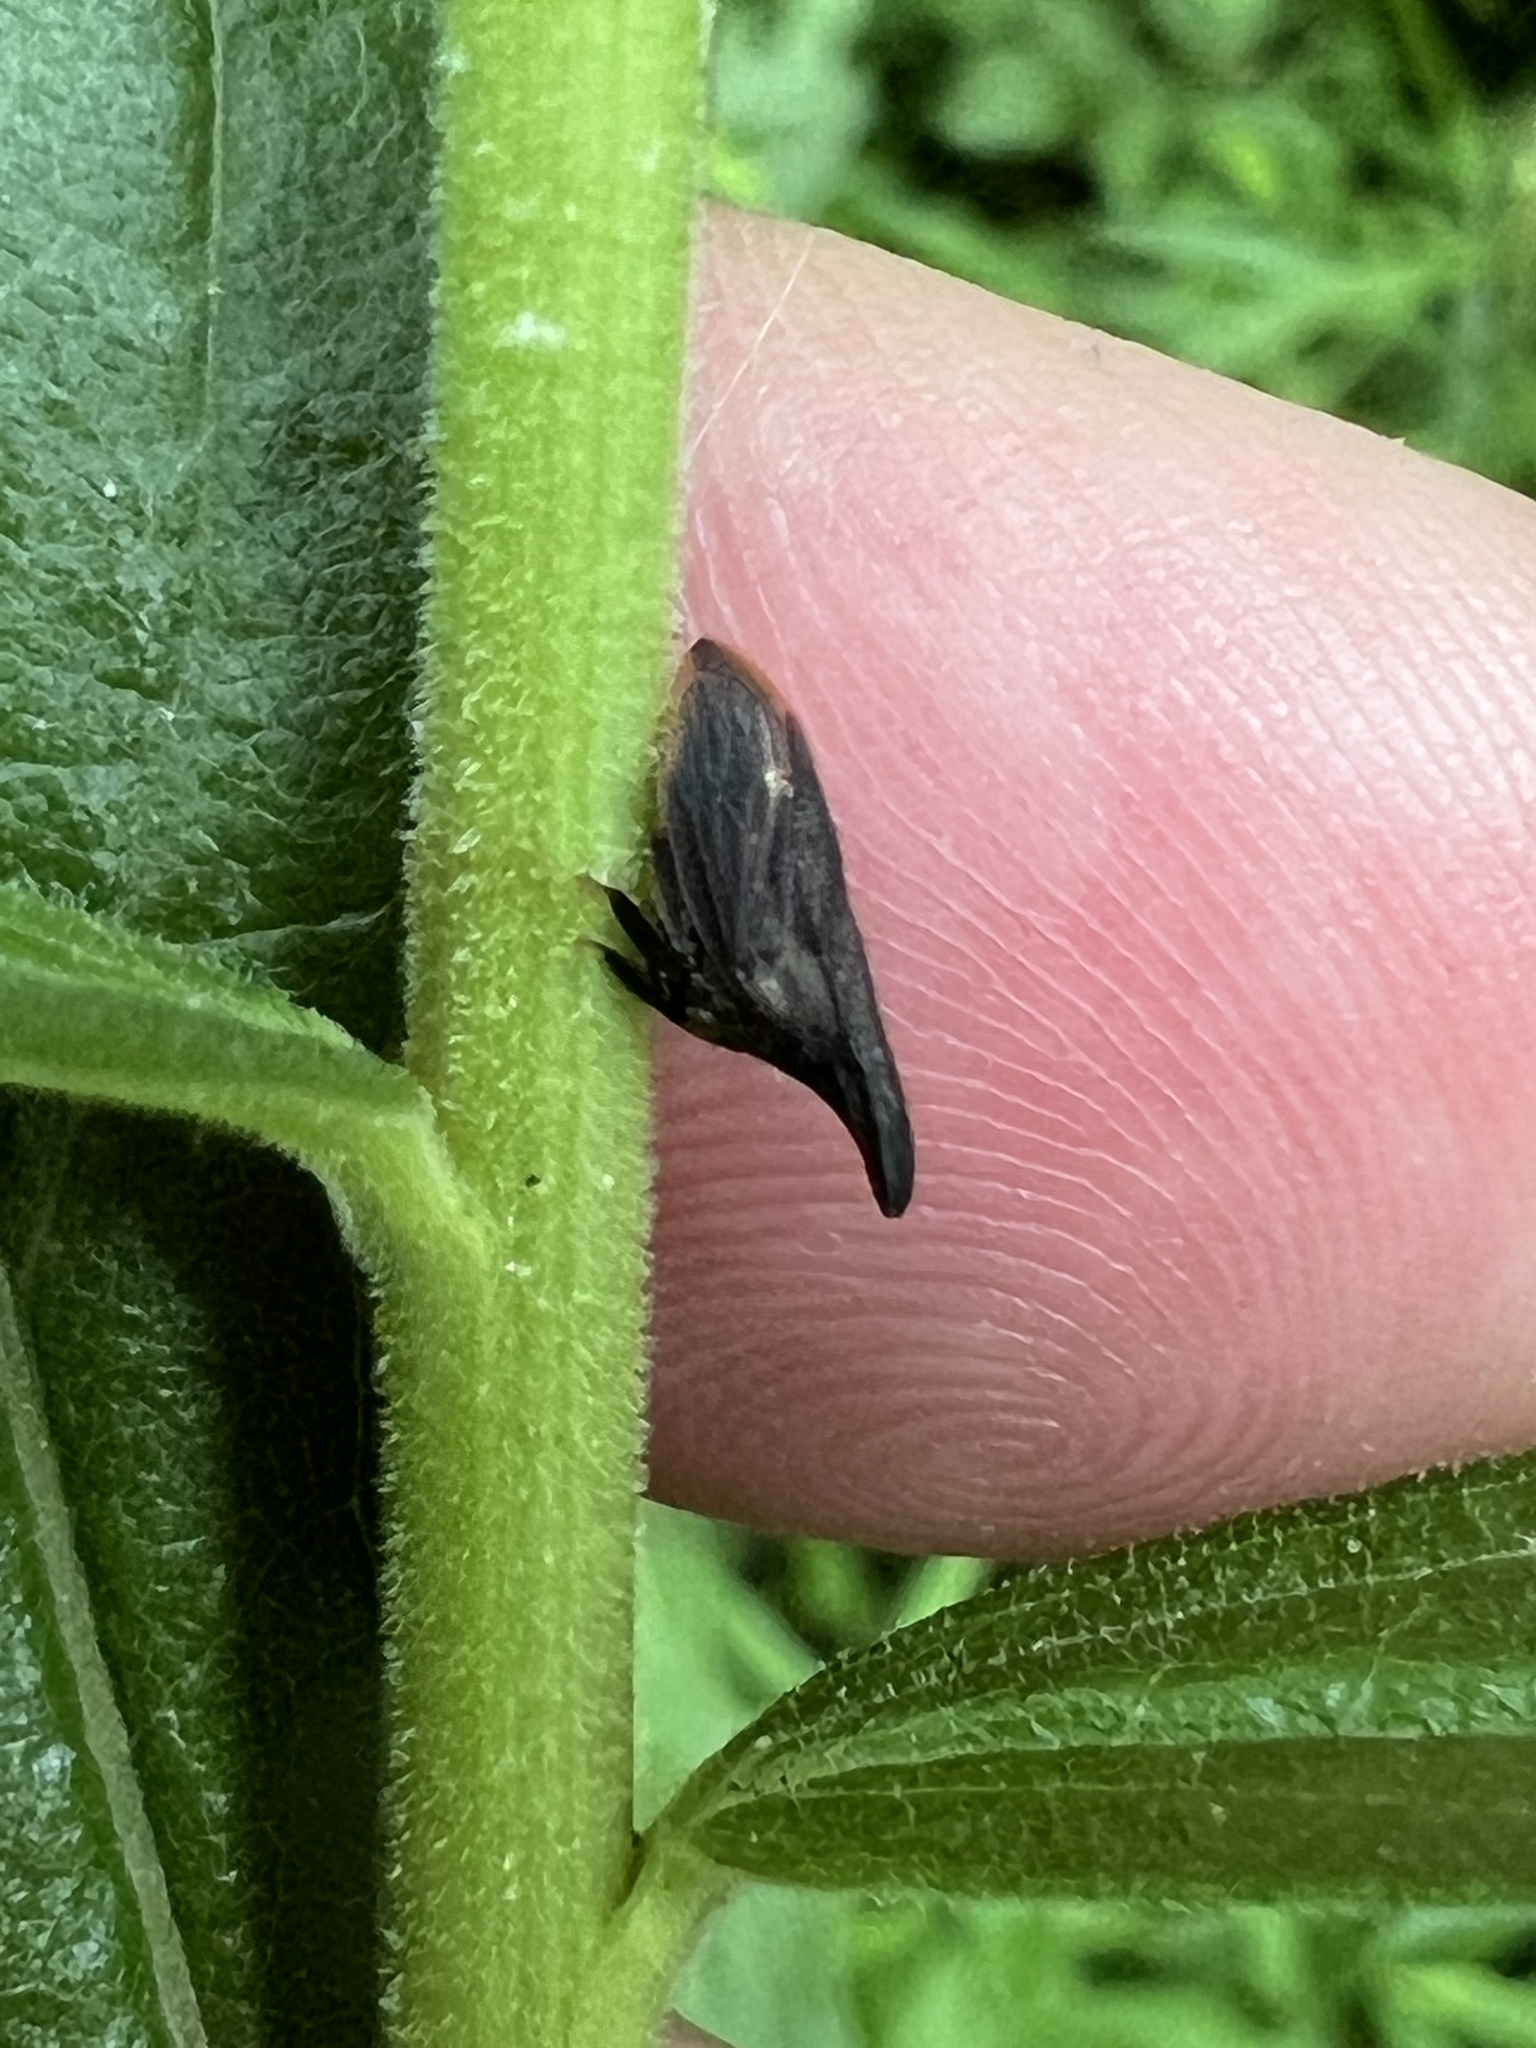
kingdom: Animalia
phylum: Arthropoda
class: Insecta
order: Hemiptera
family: Membracidae
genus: Enchenopa
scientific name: Enchenopa latipes
